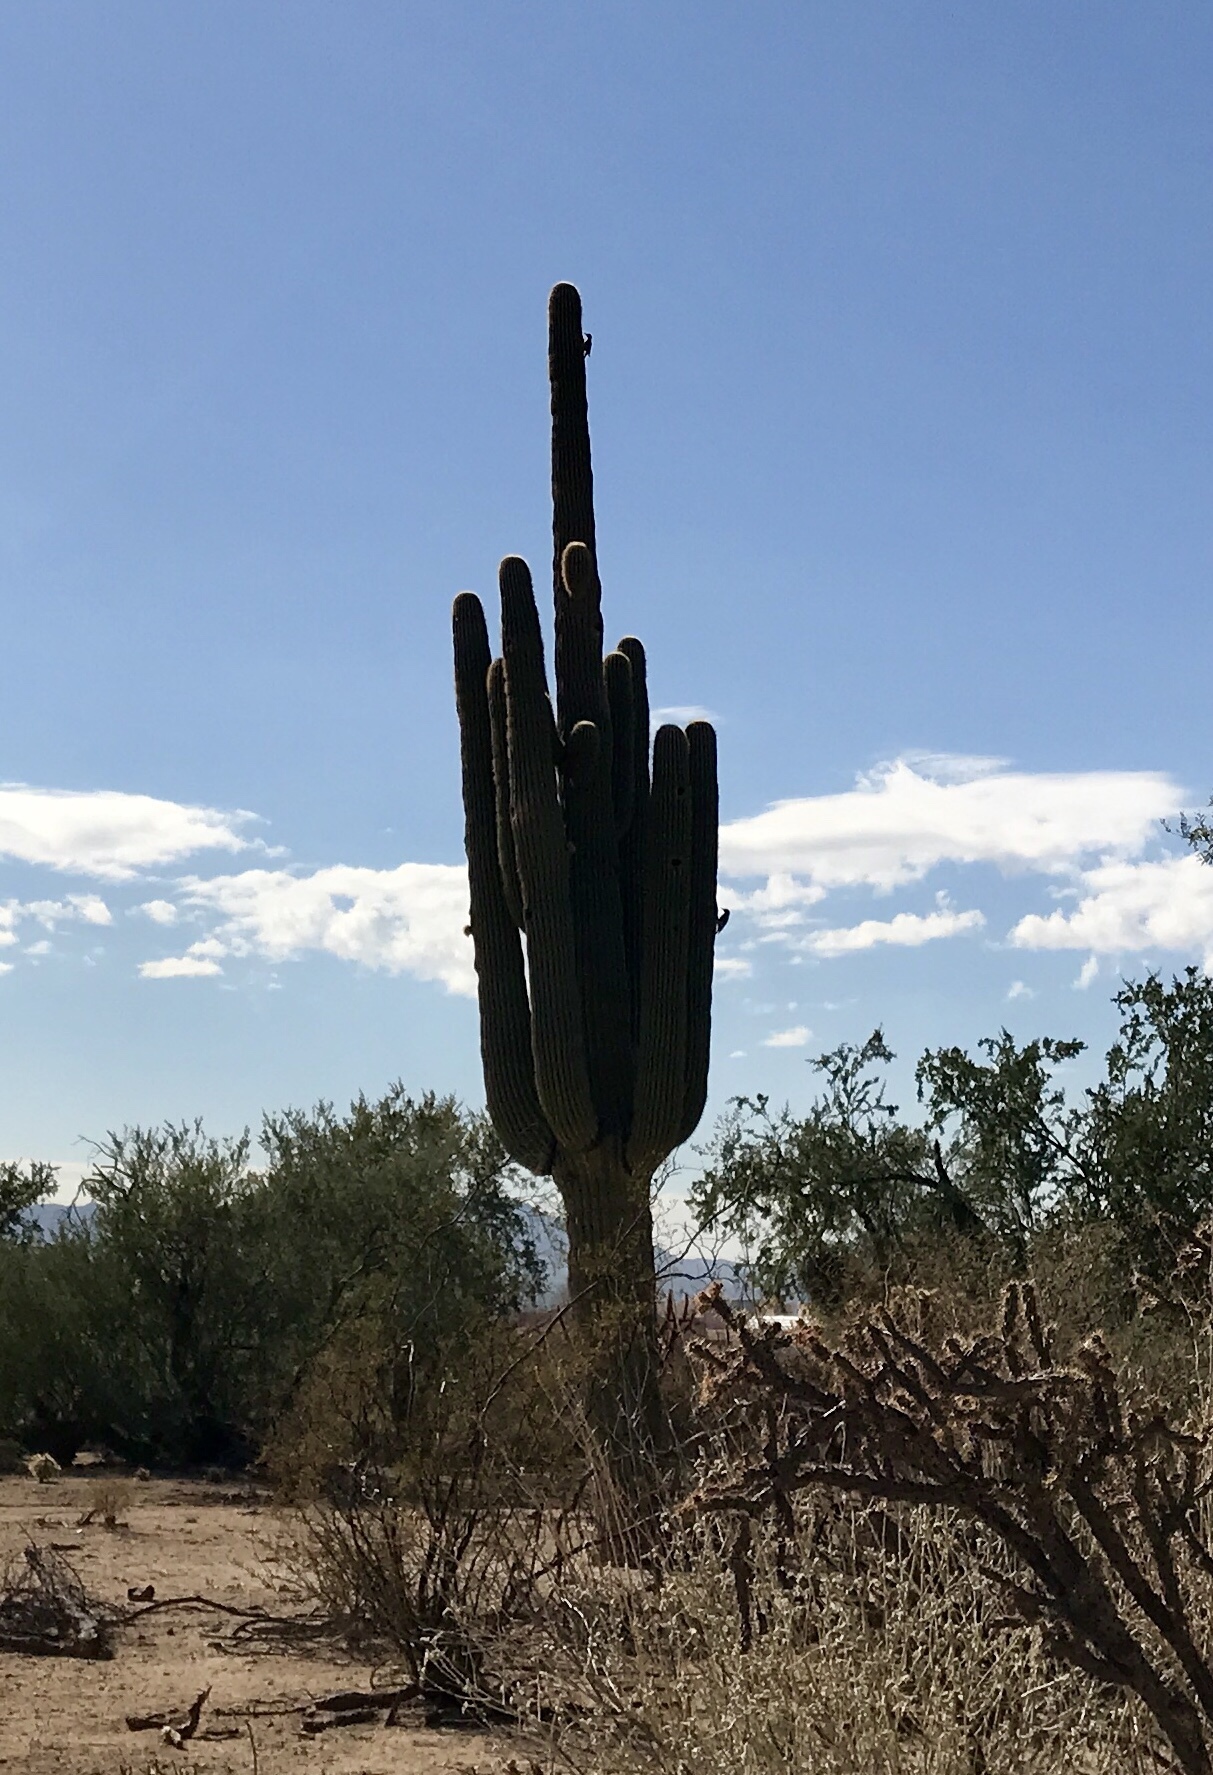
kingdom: Plantae
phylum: Tracheophyta
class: Magnoliopsida
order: Caryophyllales
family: Cactaceae
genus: Carnegiea
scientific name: Carnegiea gigantea
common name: Saguaro
